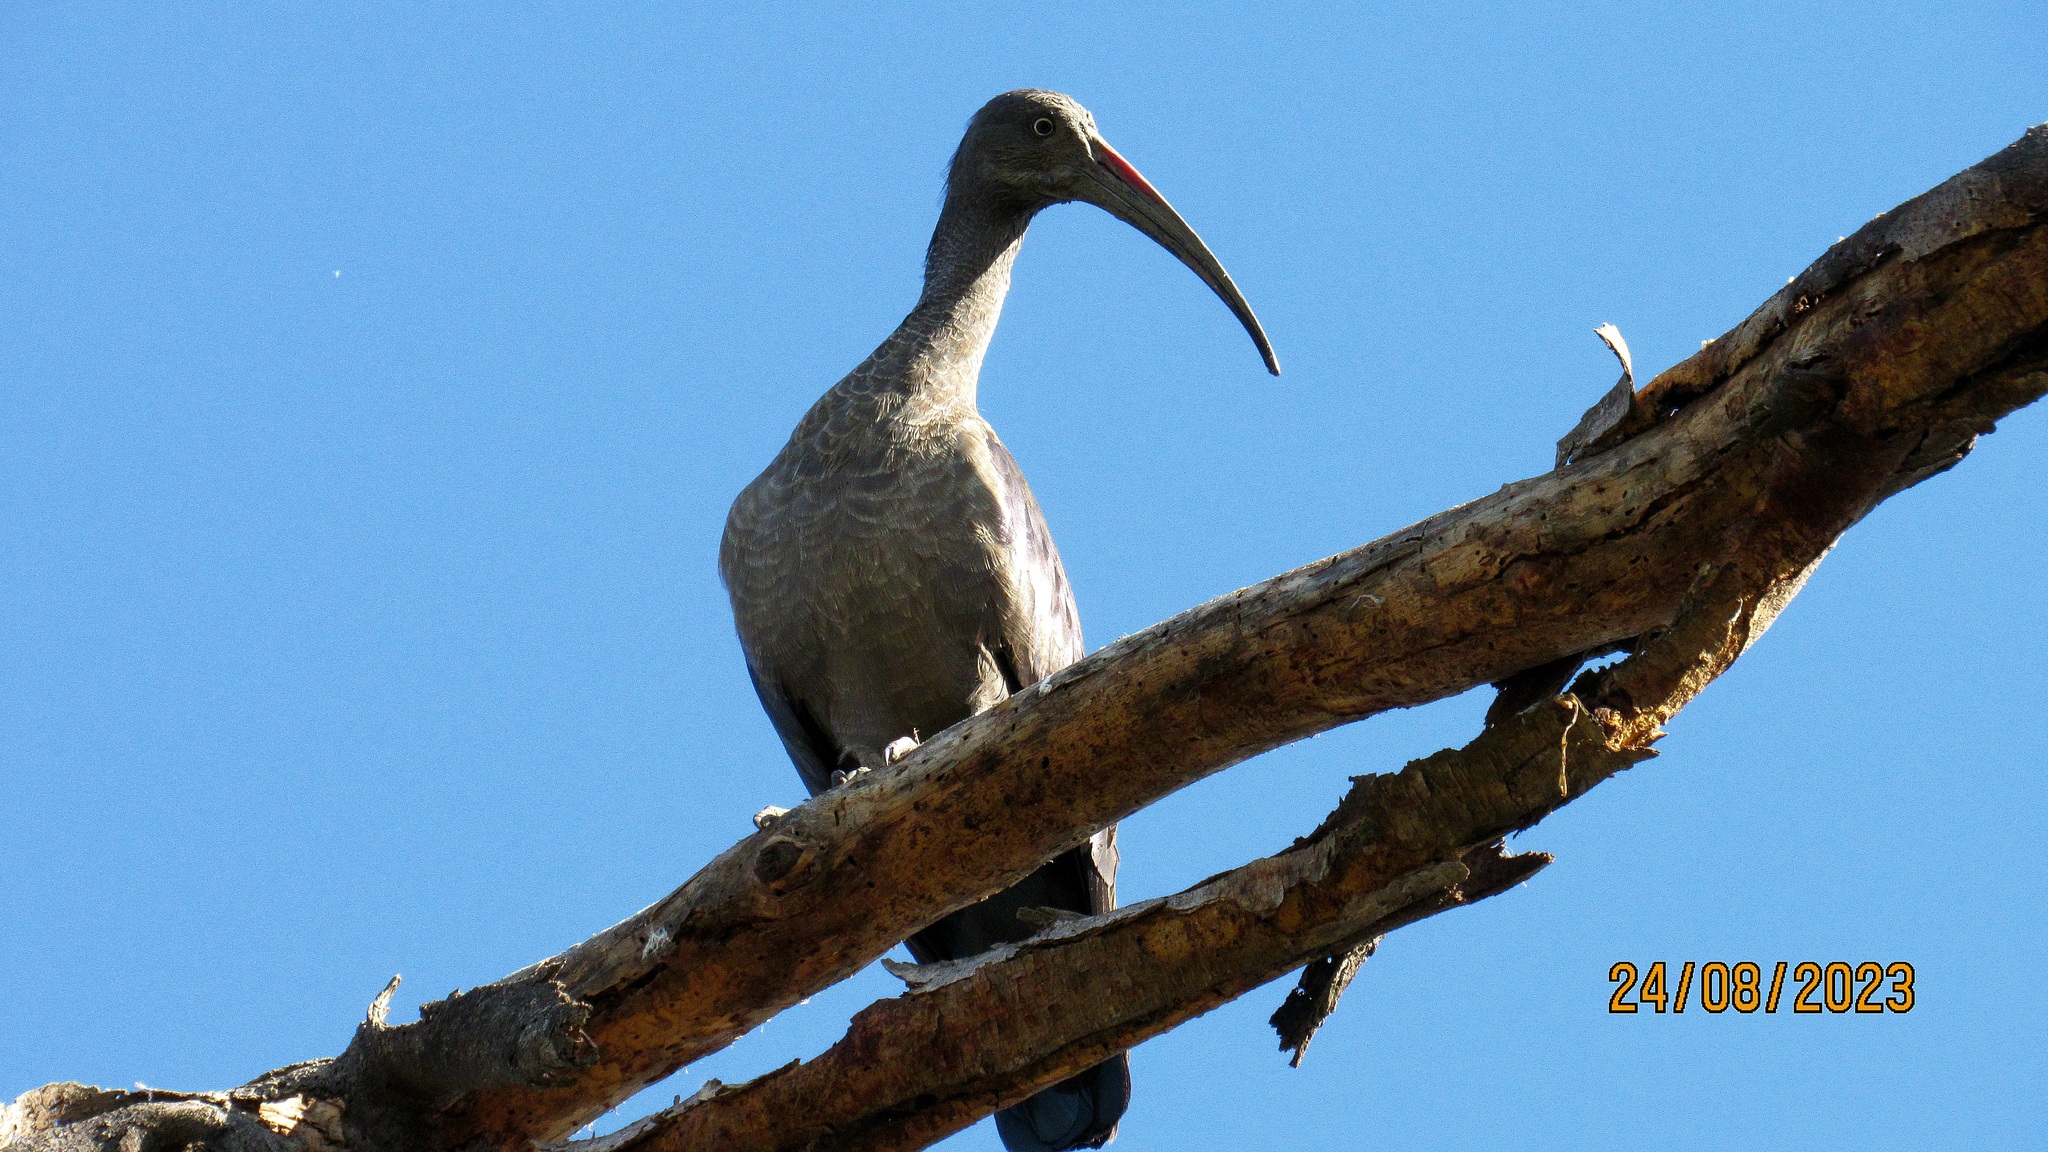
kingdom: Animalia
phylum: Chordata
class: Aves
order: Pelecaniformes
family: Threskiornithidae
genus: Bostrychia
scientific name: Bostrychia hagedash
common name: Hadada ibis
